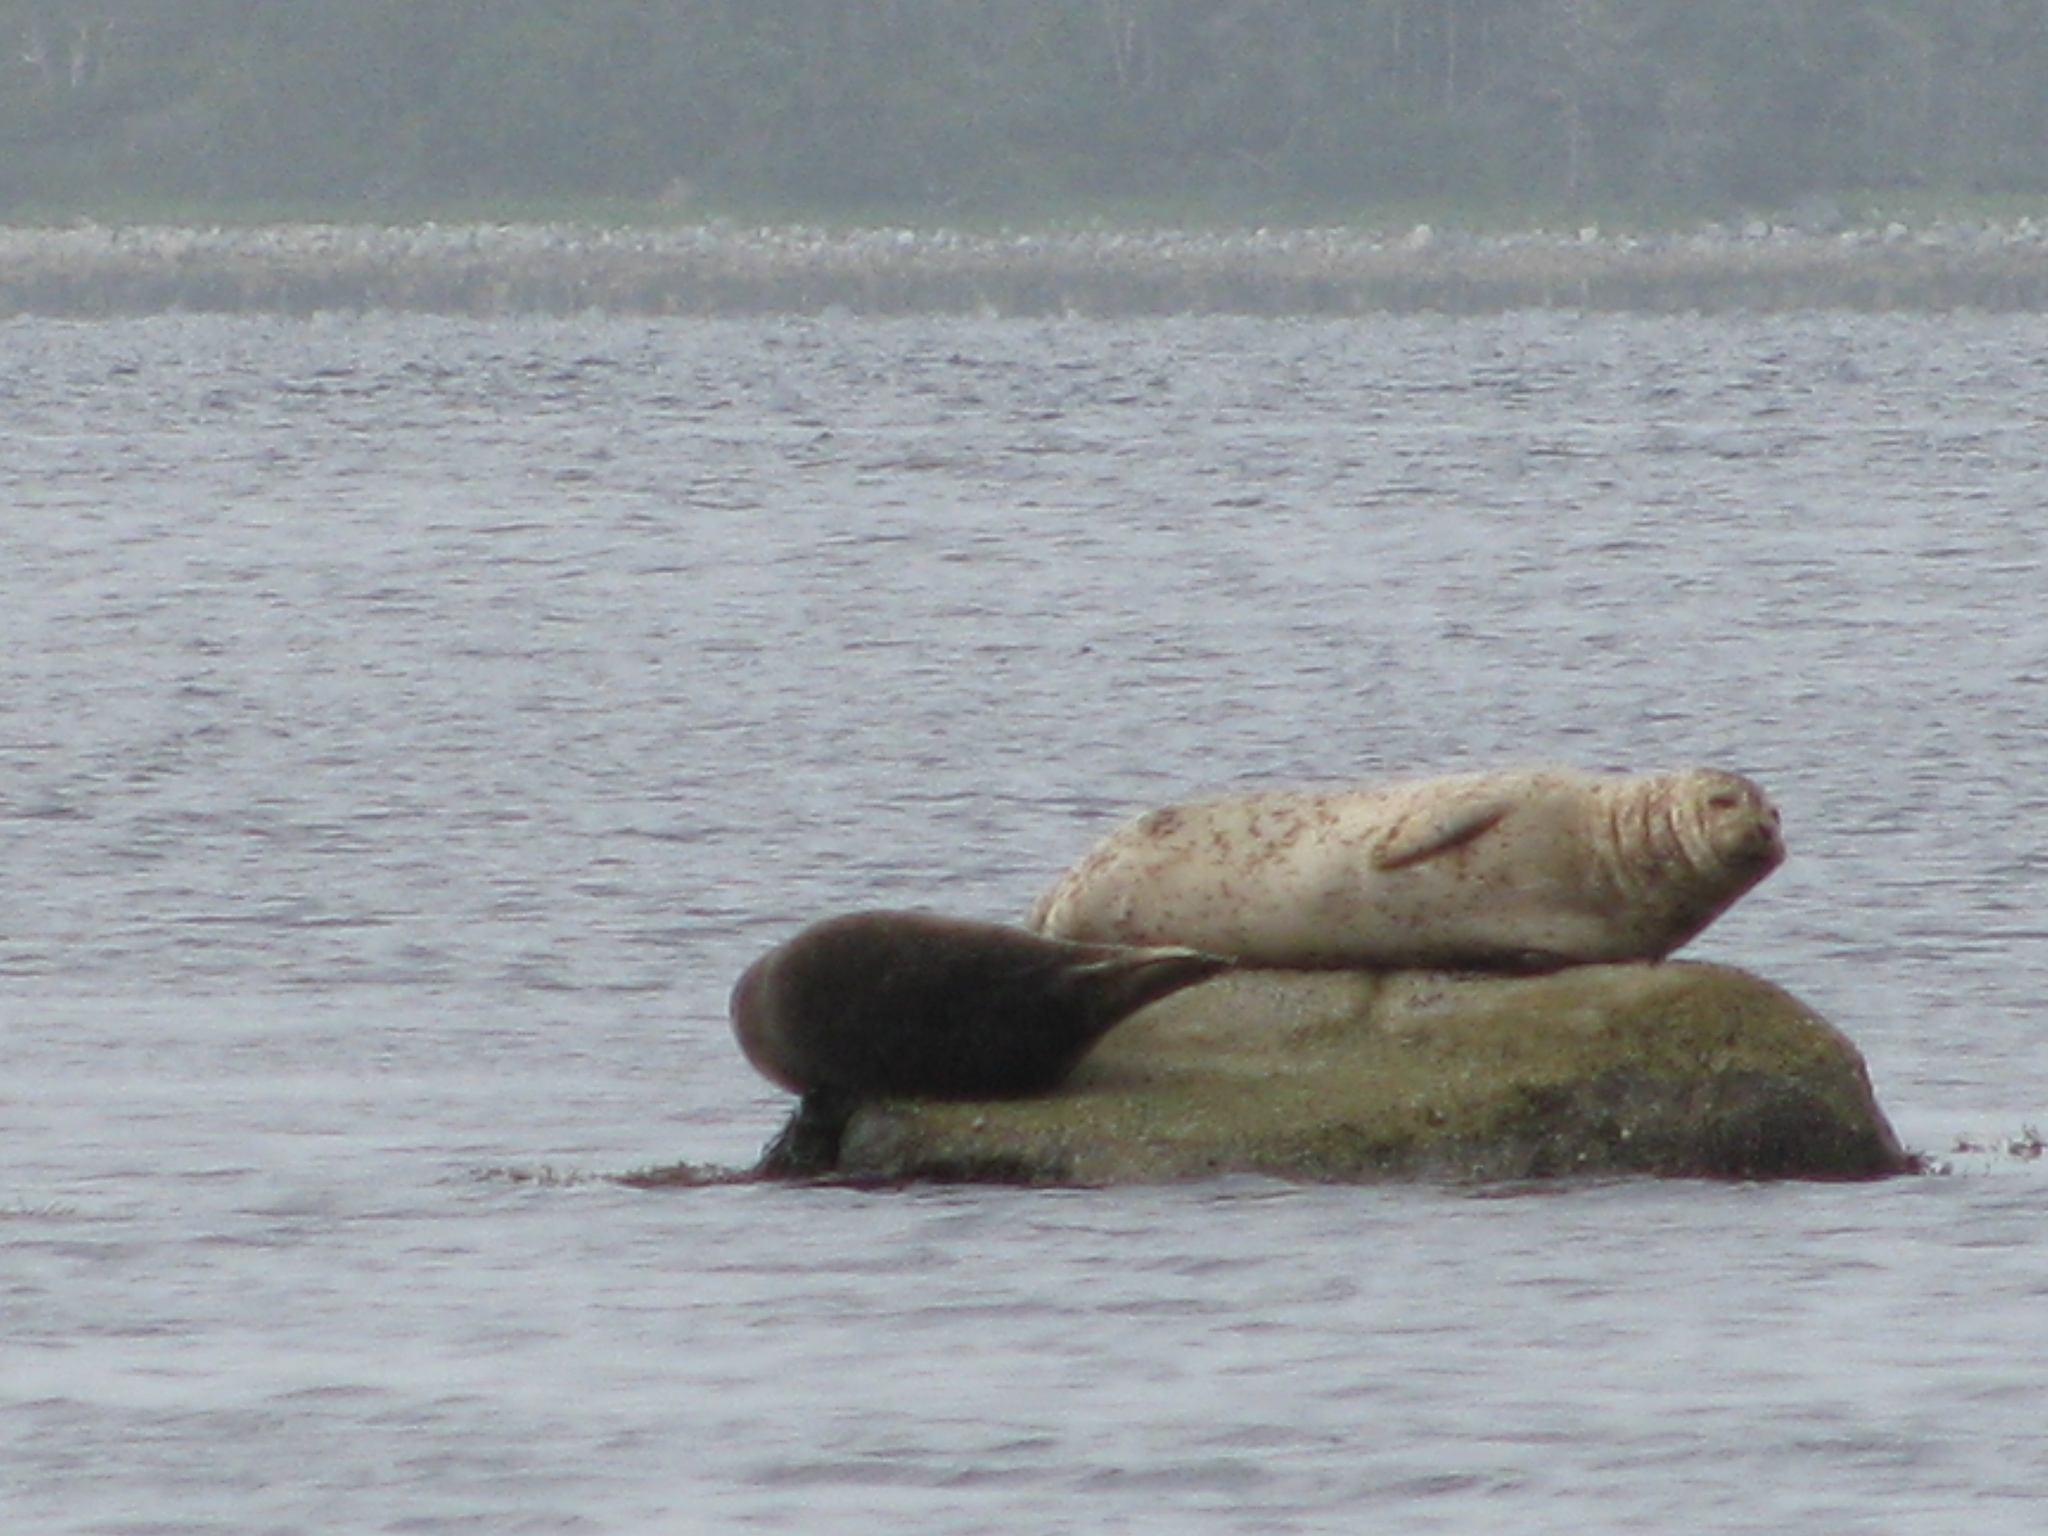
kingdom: Animalia
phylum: Chordata
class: Mammalia
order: Carnivora
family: Phocidae
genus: Phoca
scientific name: Phoca vitulina
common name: Harbor seal
